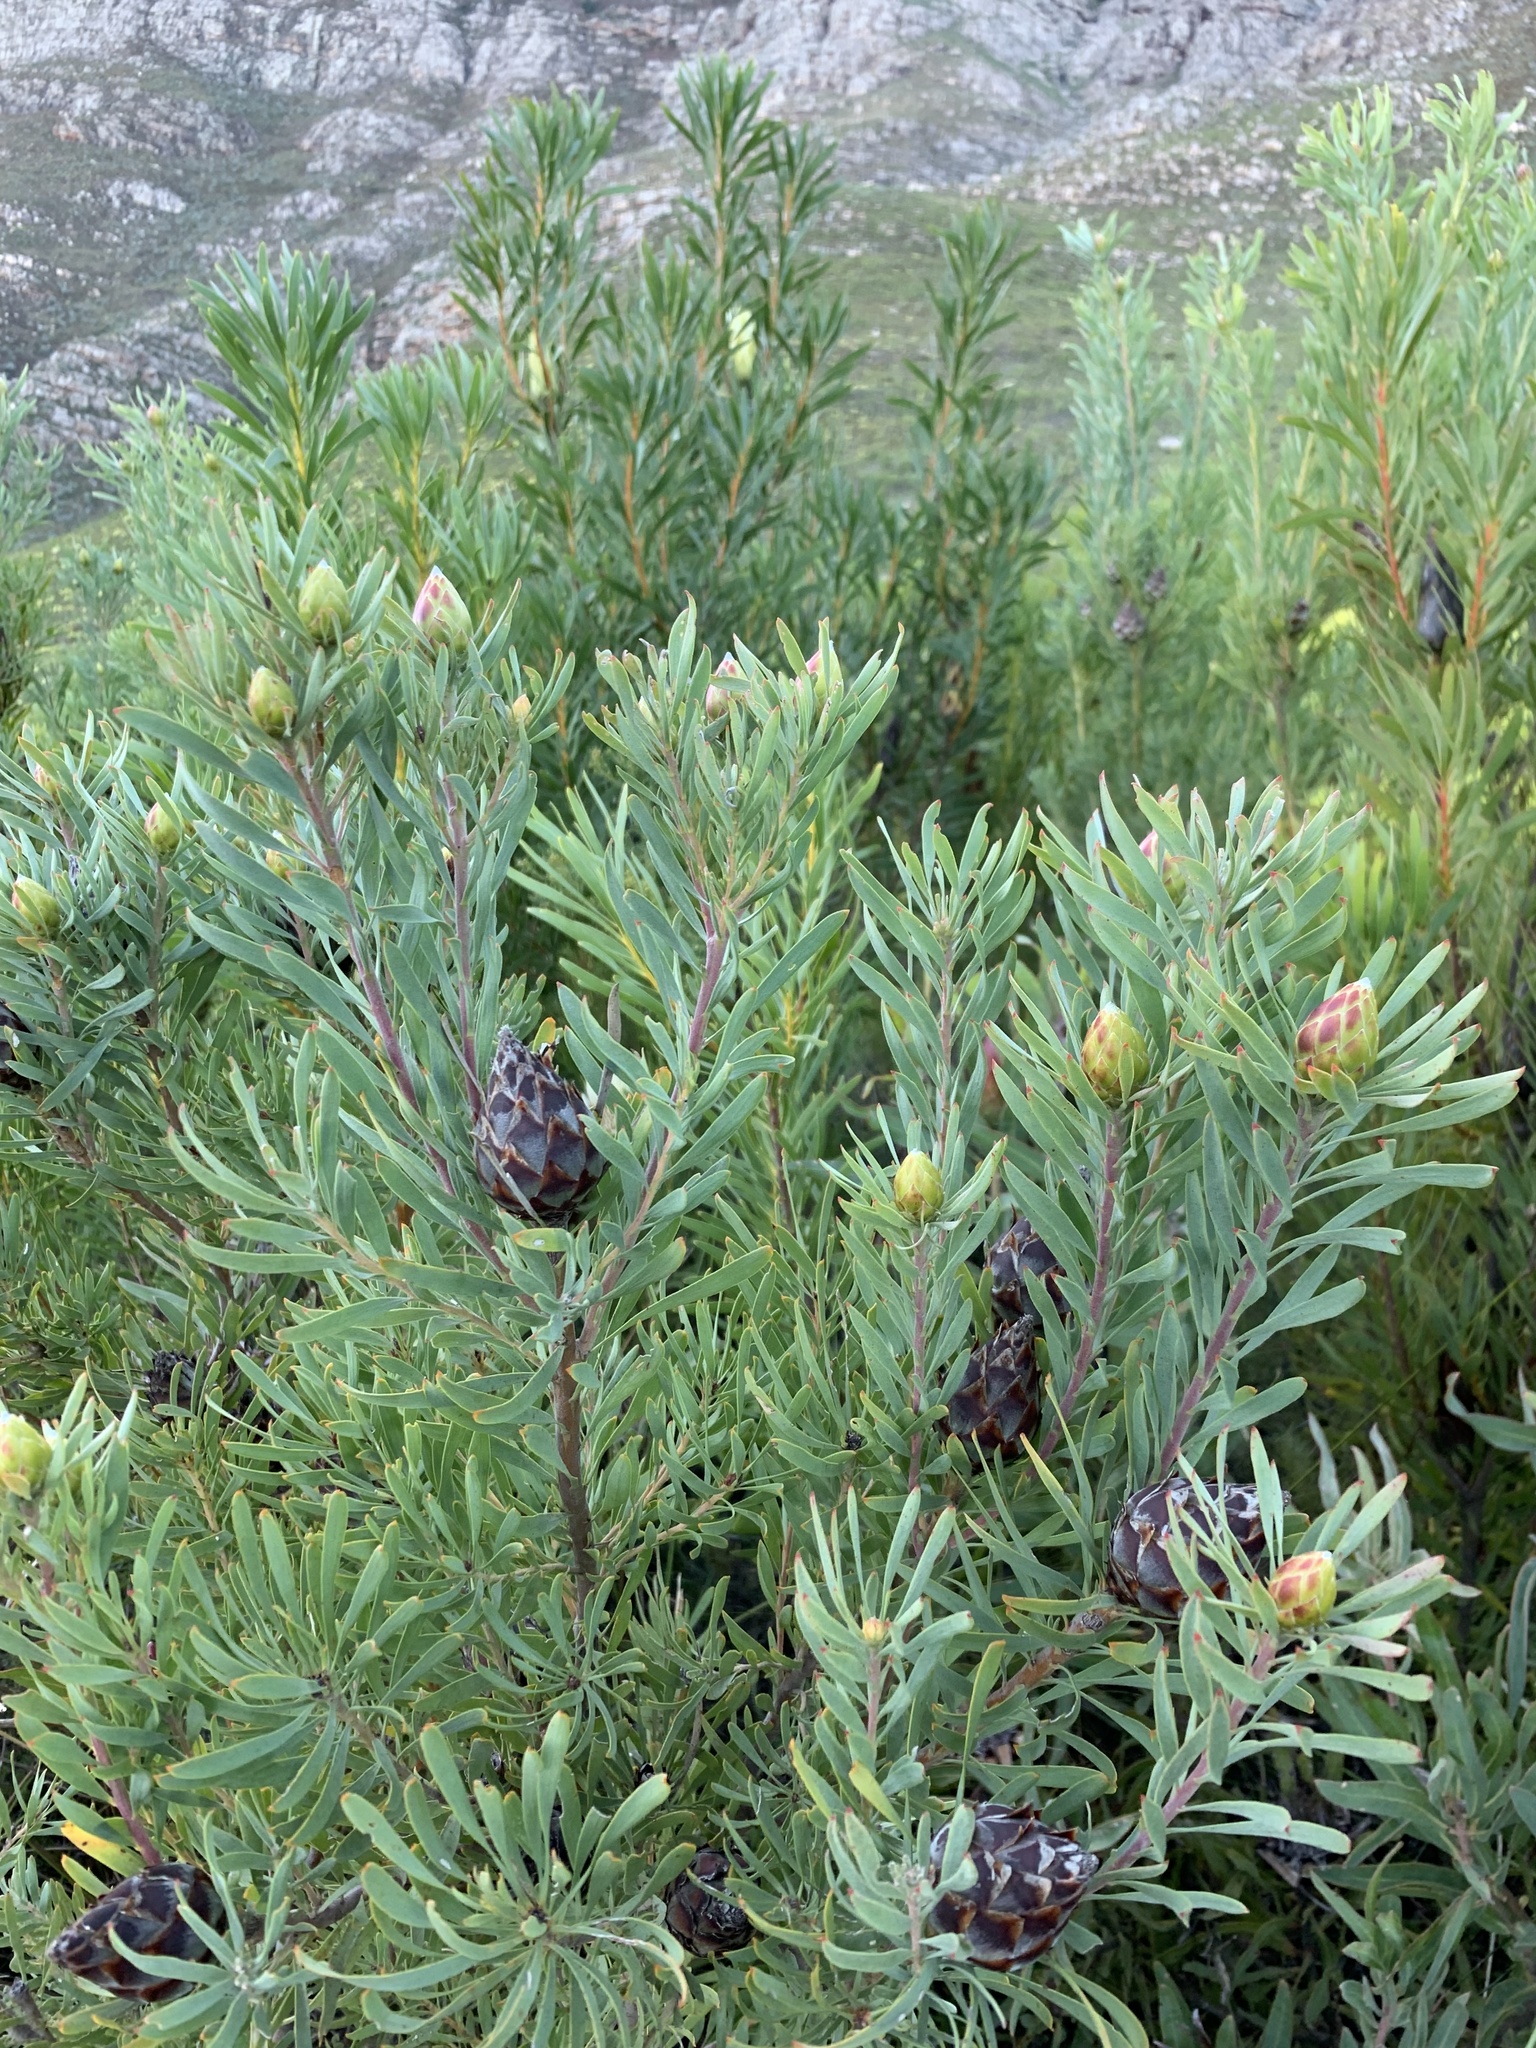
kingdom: Plantae
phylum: Tracheophyta
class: Magnoliopsida
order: Proteales
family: Proteaceae
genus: Leucadendron
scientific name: Leucadendron rubrum
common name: Spinning top
